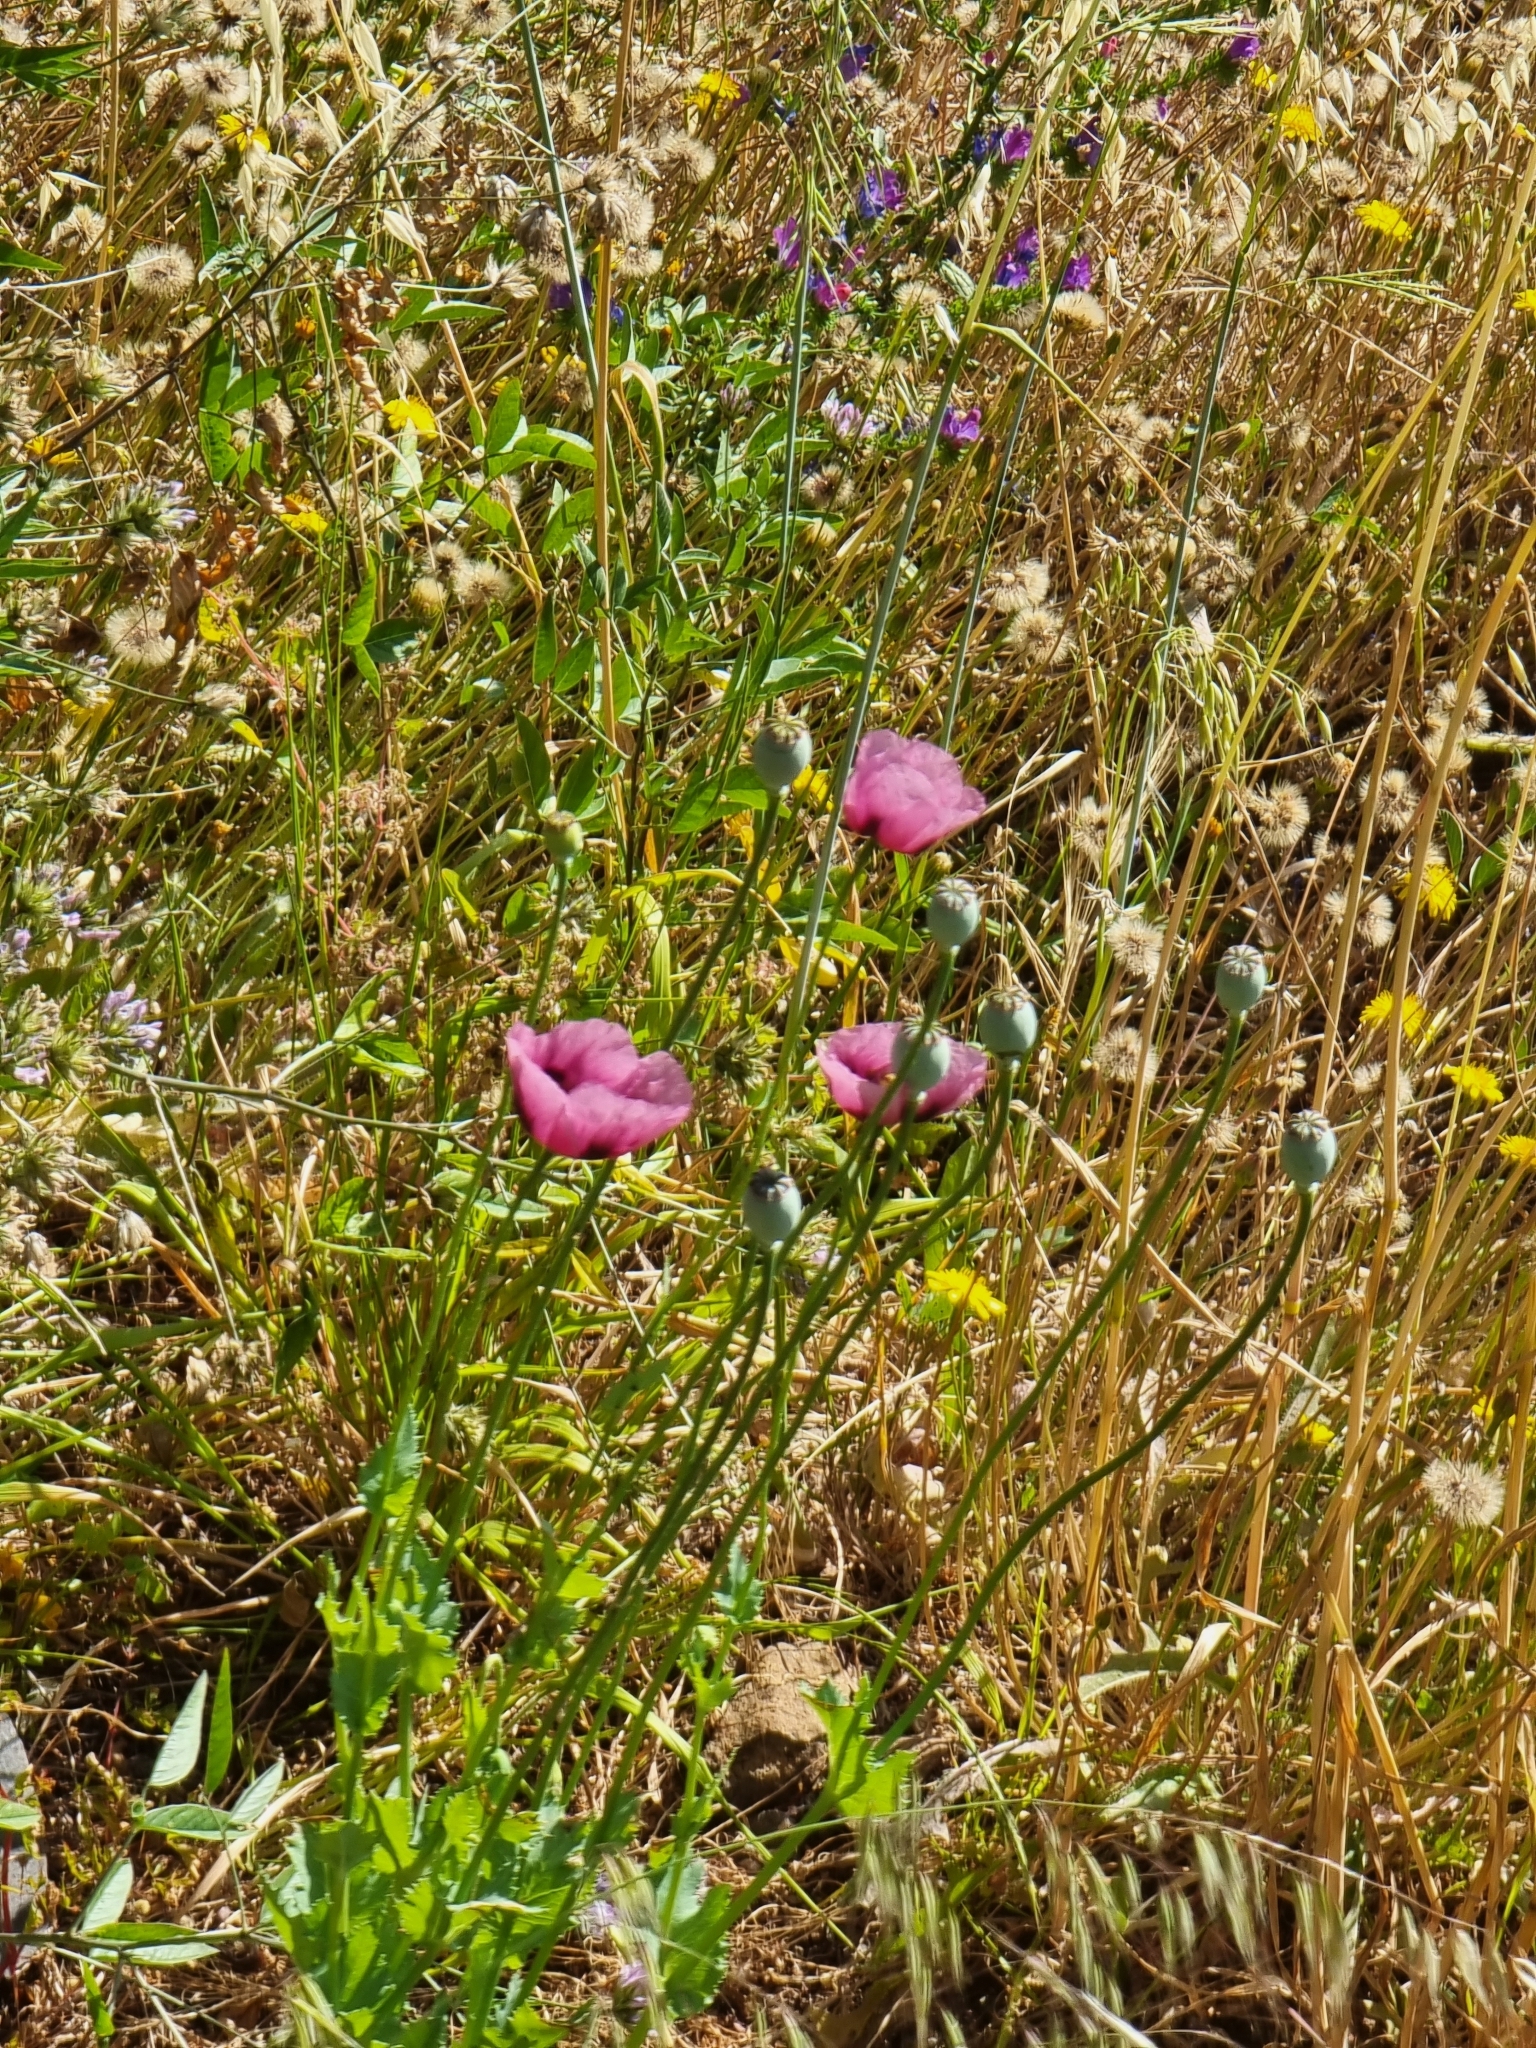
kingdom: Plantae
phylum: Tracheophyta
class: Magnoliopsida
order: Ranunculales
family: Papaveraceae
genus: Papaver
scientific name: Papaver somniferum
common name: Opium poppy
